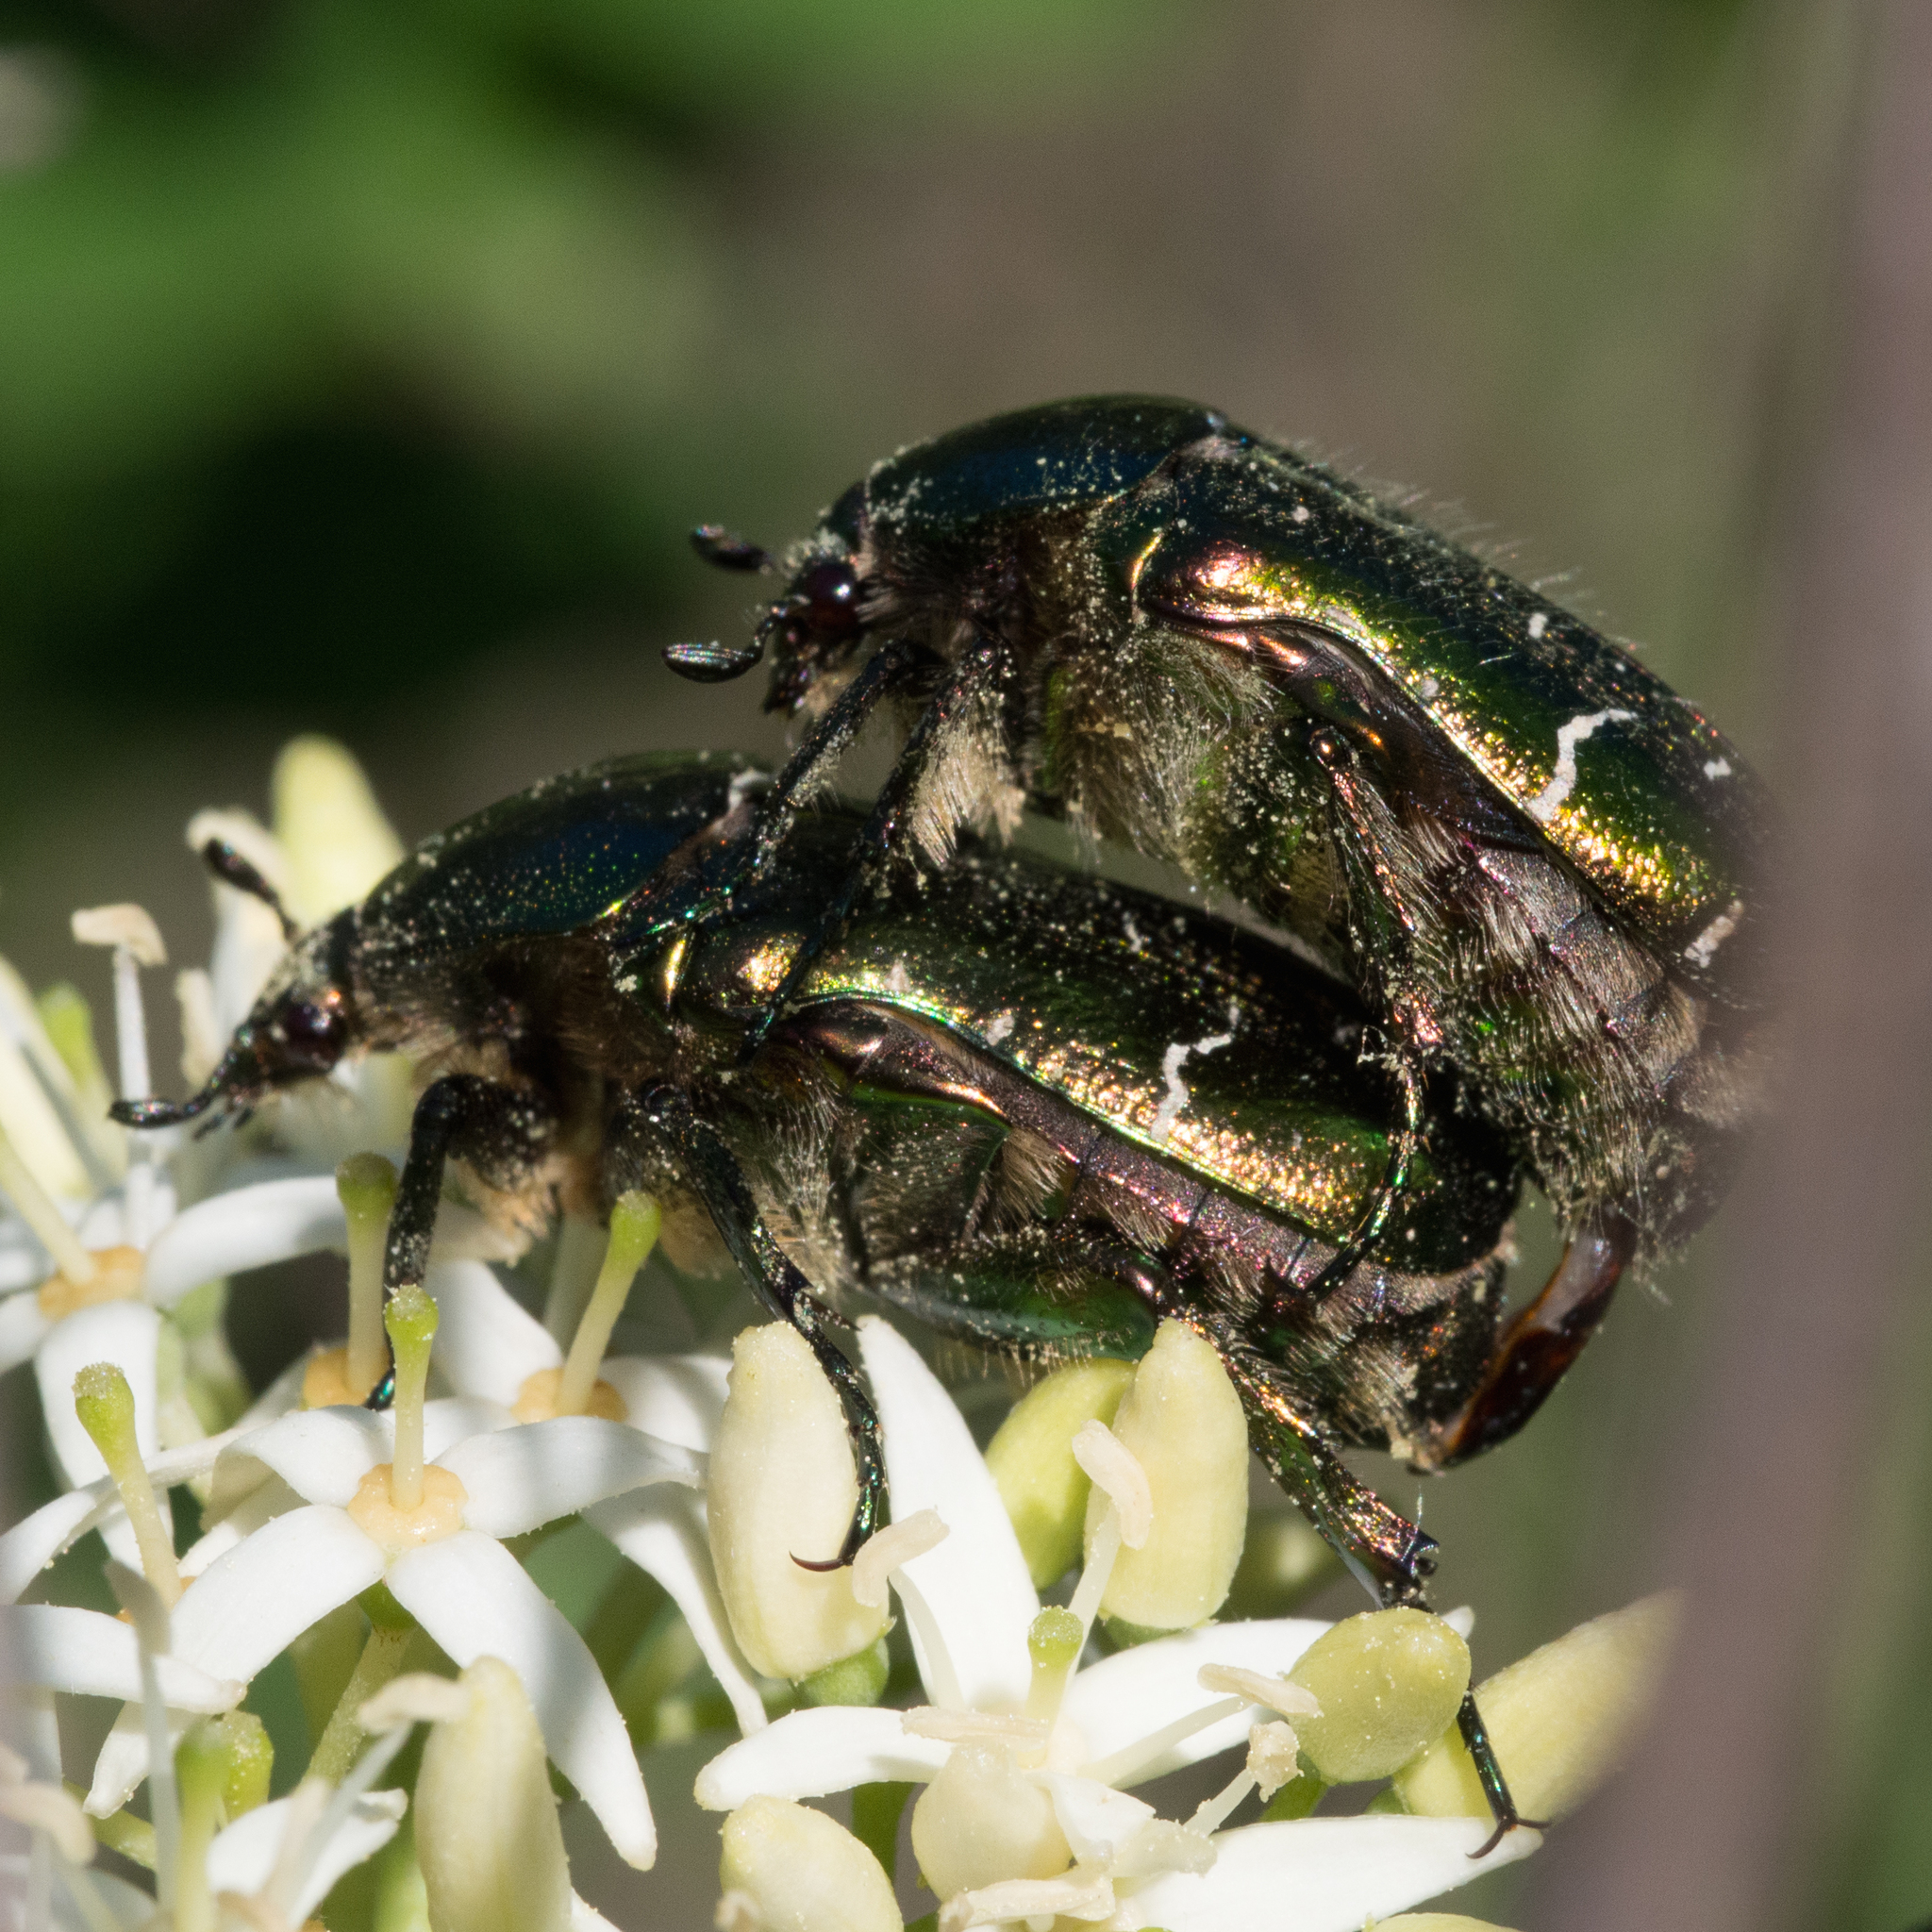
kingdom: Animalia
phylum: Arthropoda
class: Insecta
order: Coleoptera
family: Scarabaeidae
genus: Cetonia
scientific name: Cetonia aurata
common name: Rose chafer
